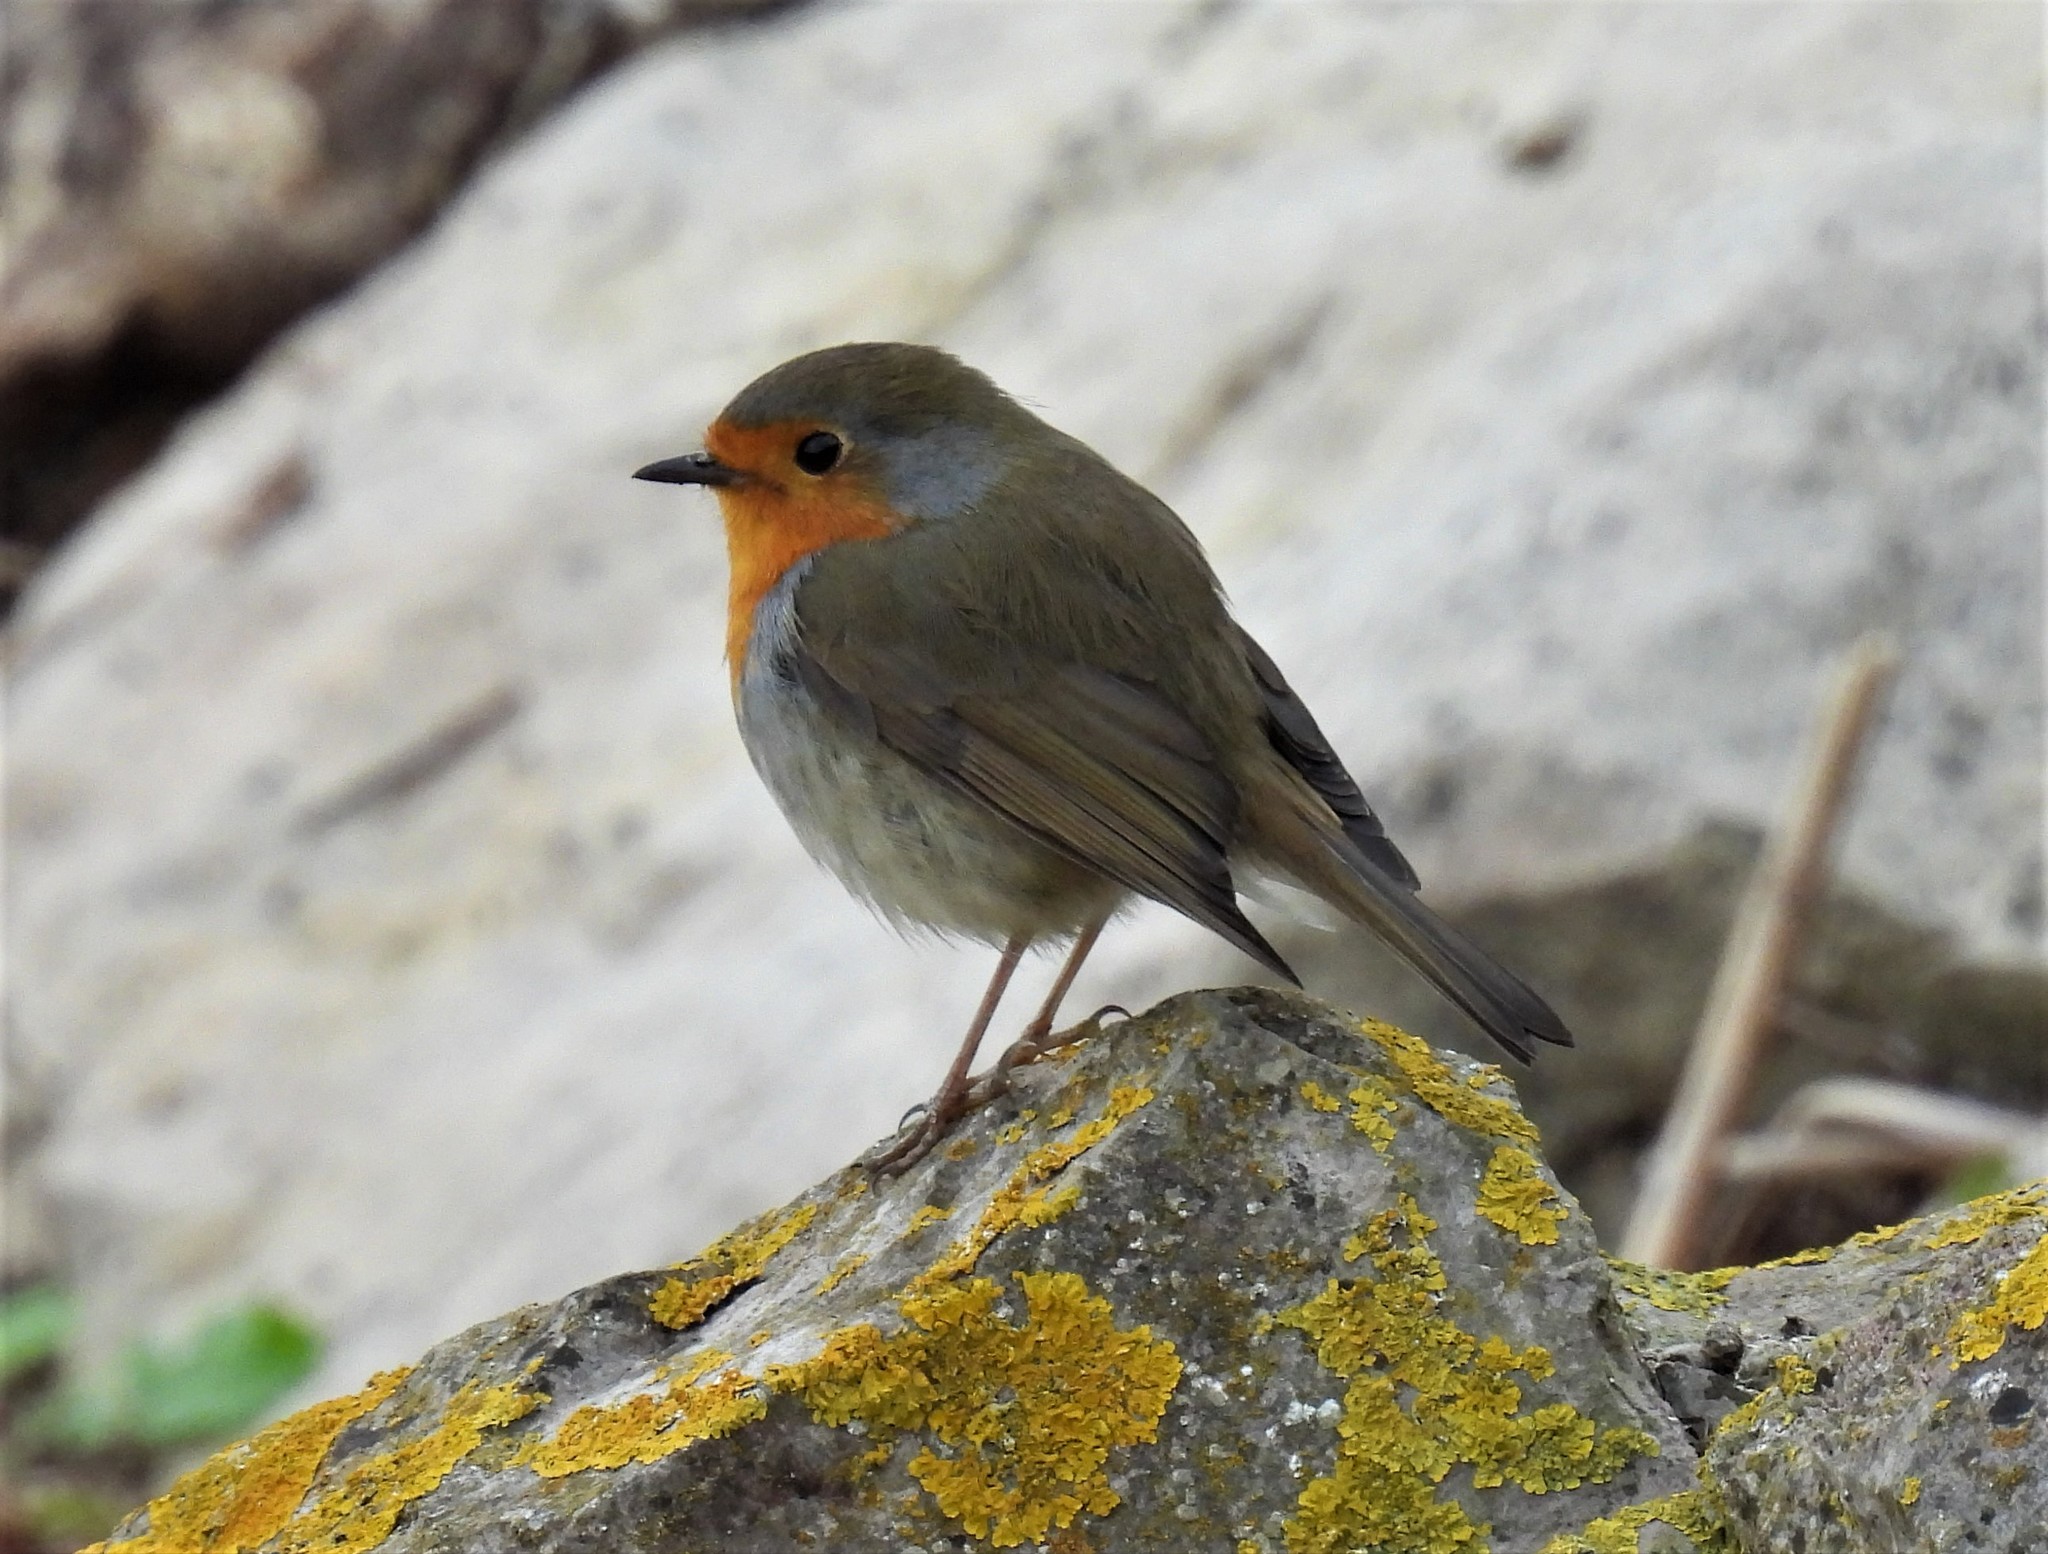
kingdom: Animalia
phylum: Chordata
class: Aves
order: Passeriformes
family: Muscicapidae
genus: Erithacus
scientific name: Erithacus rubecula
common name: European robin
